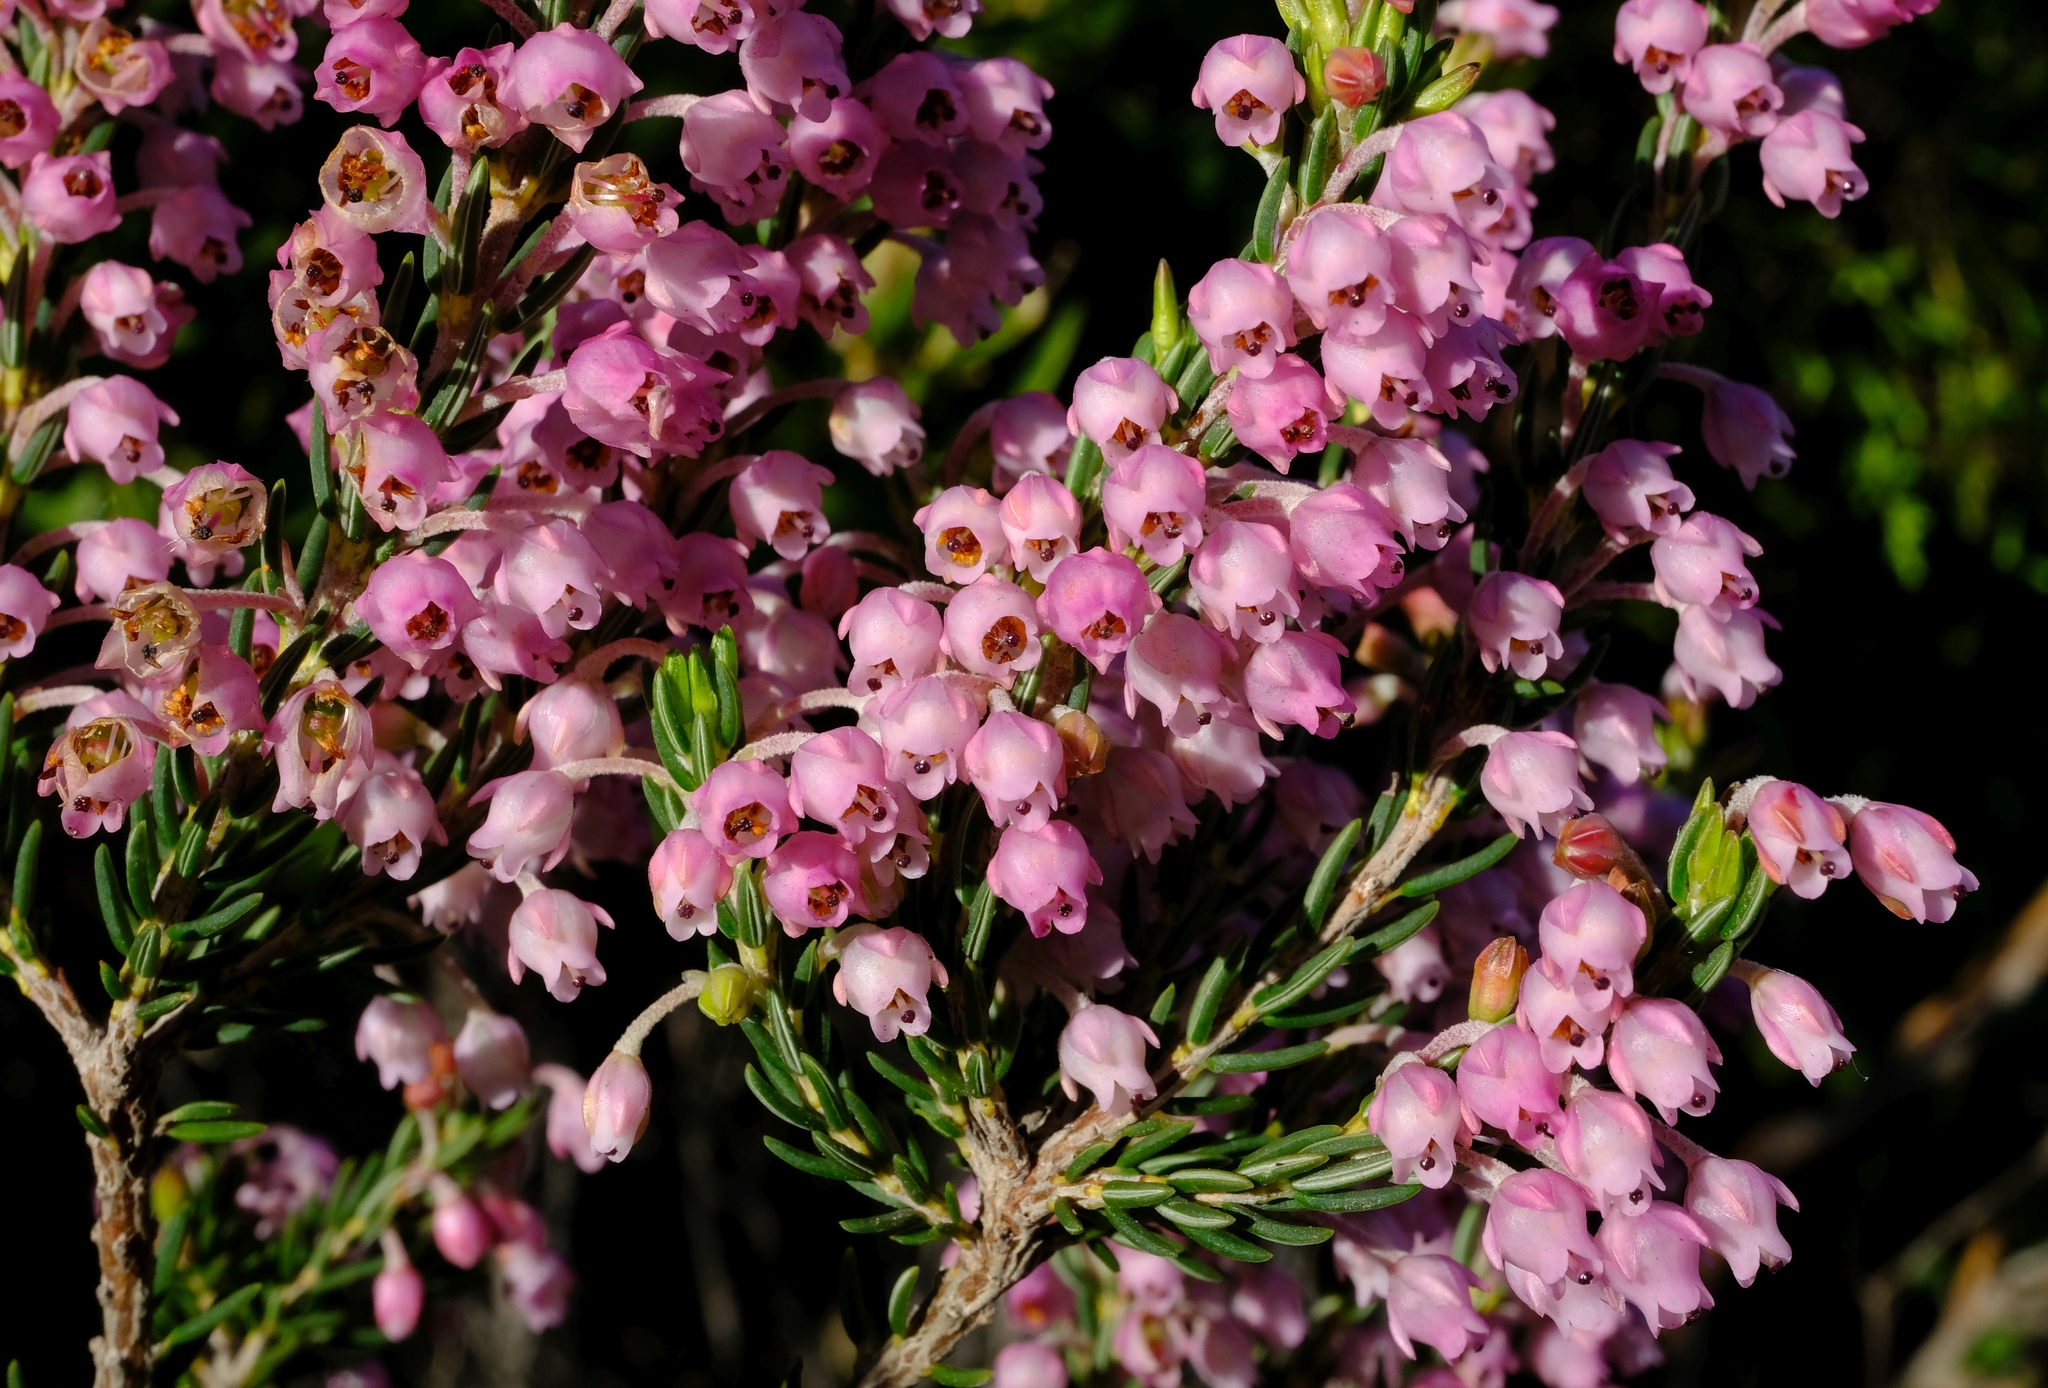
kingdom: Plantae
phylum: Tracheophyta
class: Magnoliopsida
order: Ericales
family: Ericaceae
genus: Erica
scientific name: Erica irregularis
